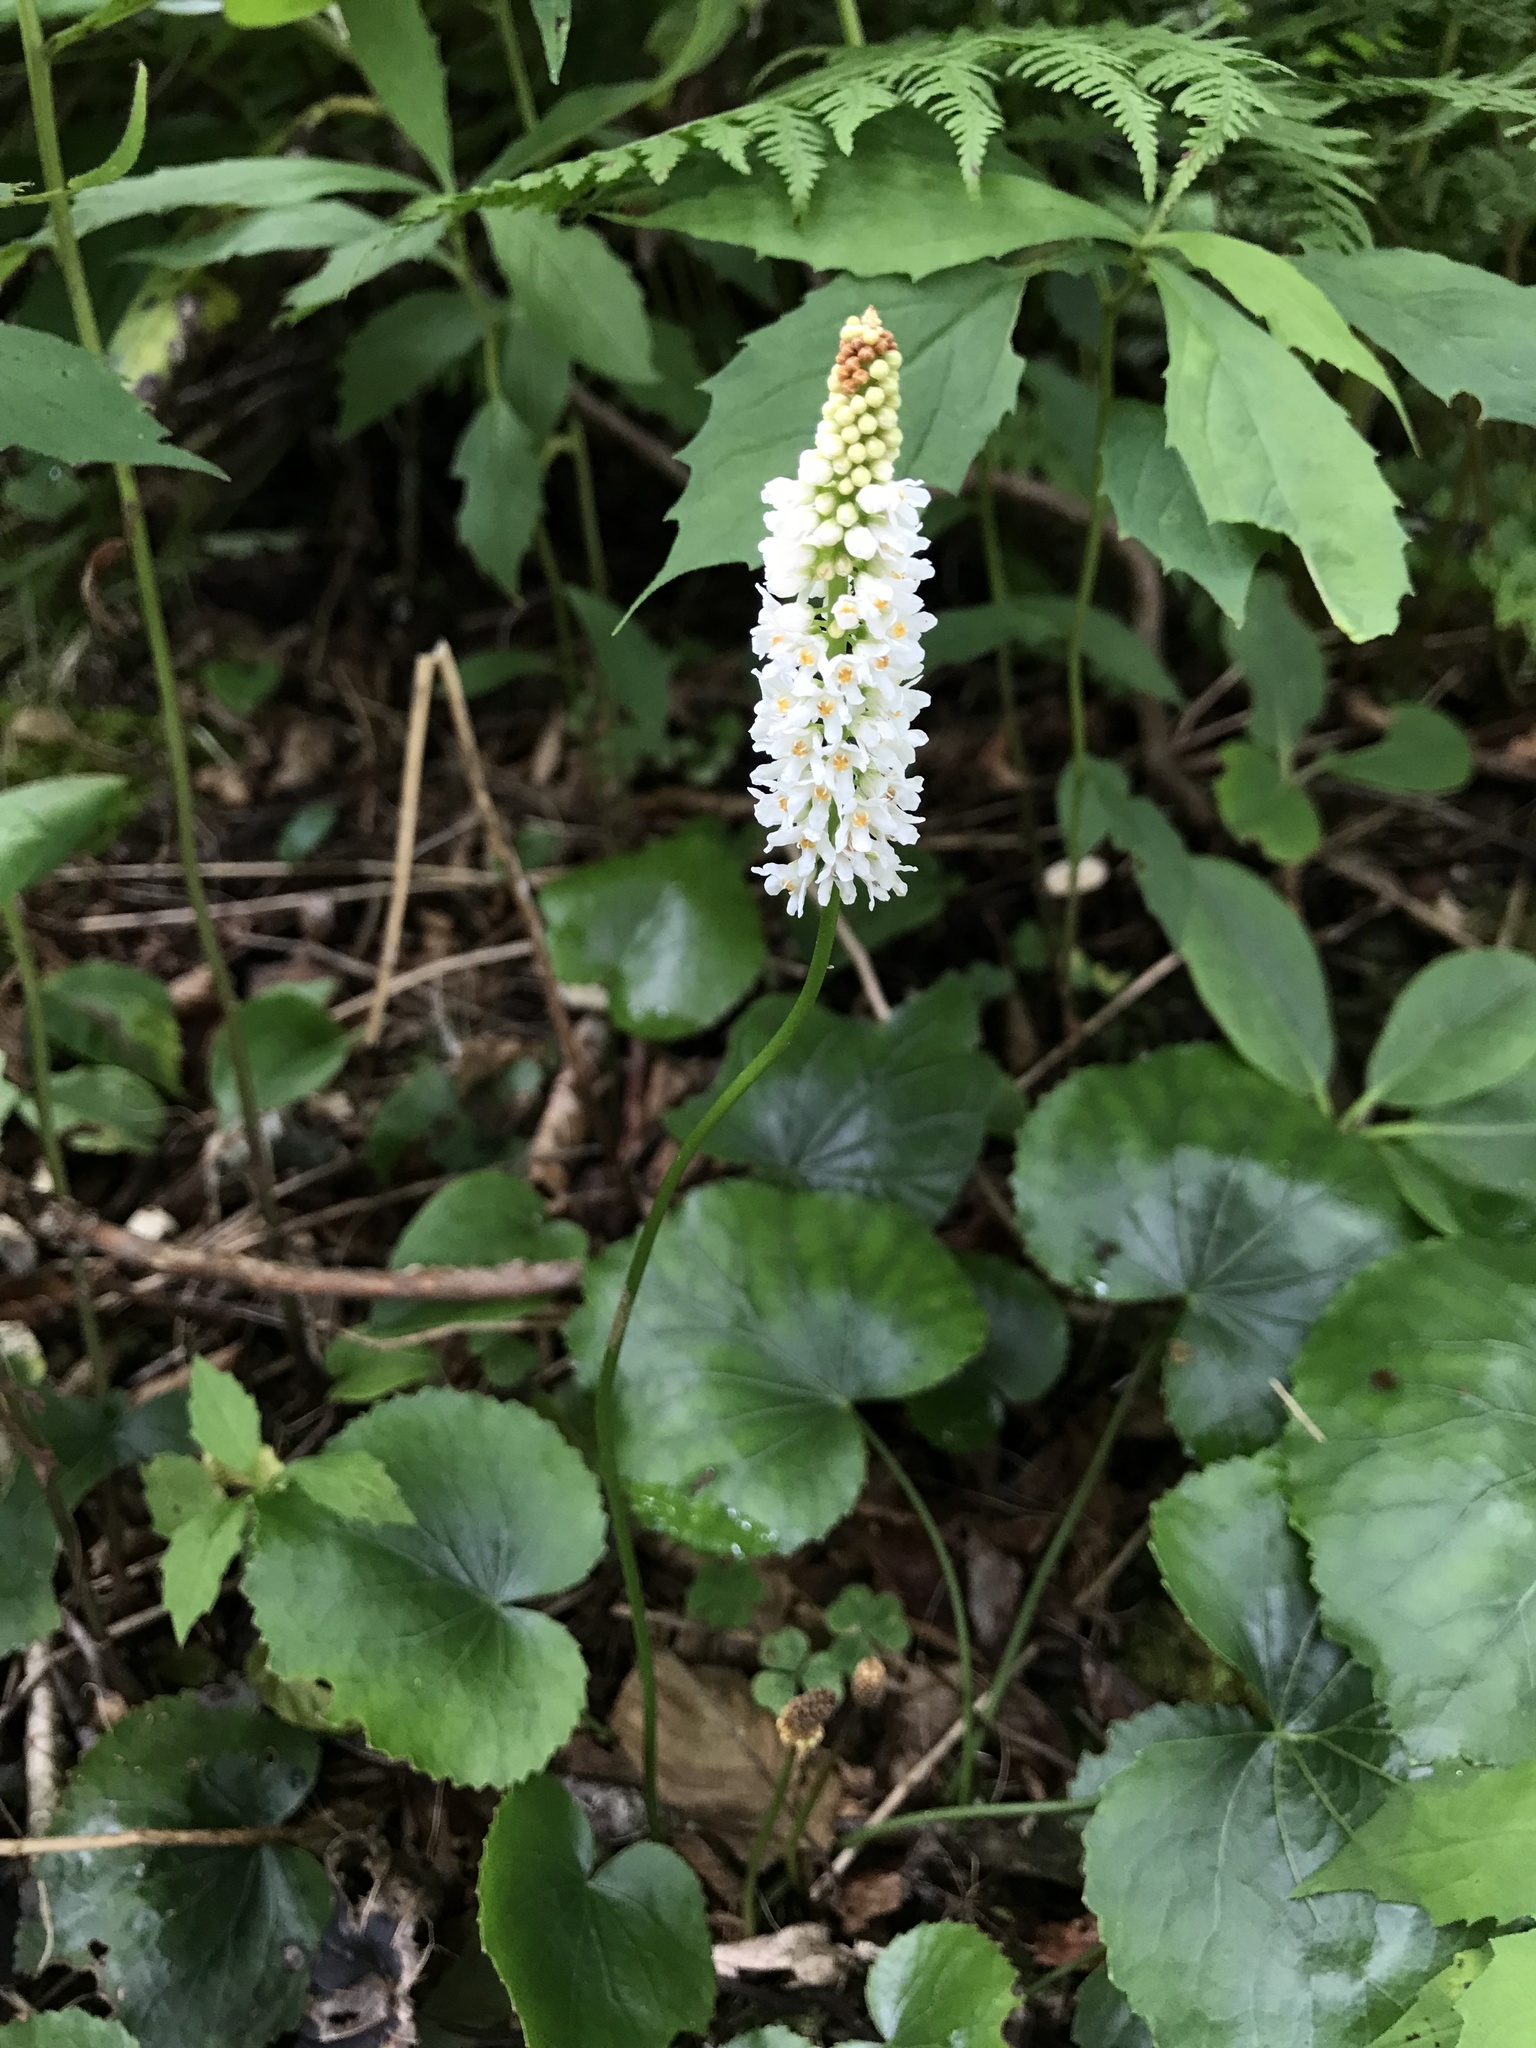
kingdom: Plantae
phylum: Tracheophyta
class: Magnoliopsida
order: Ericales
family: Diapensiaceae
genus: Galax
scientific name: Galax urceolata
